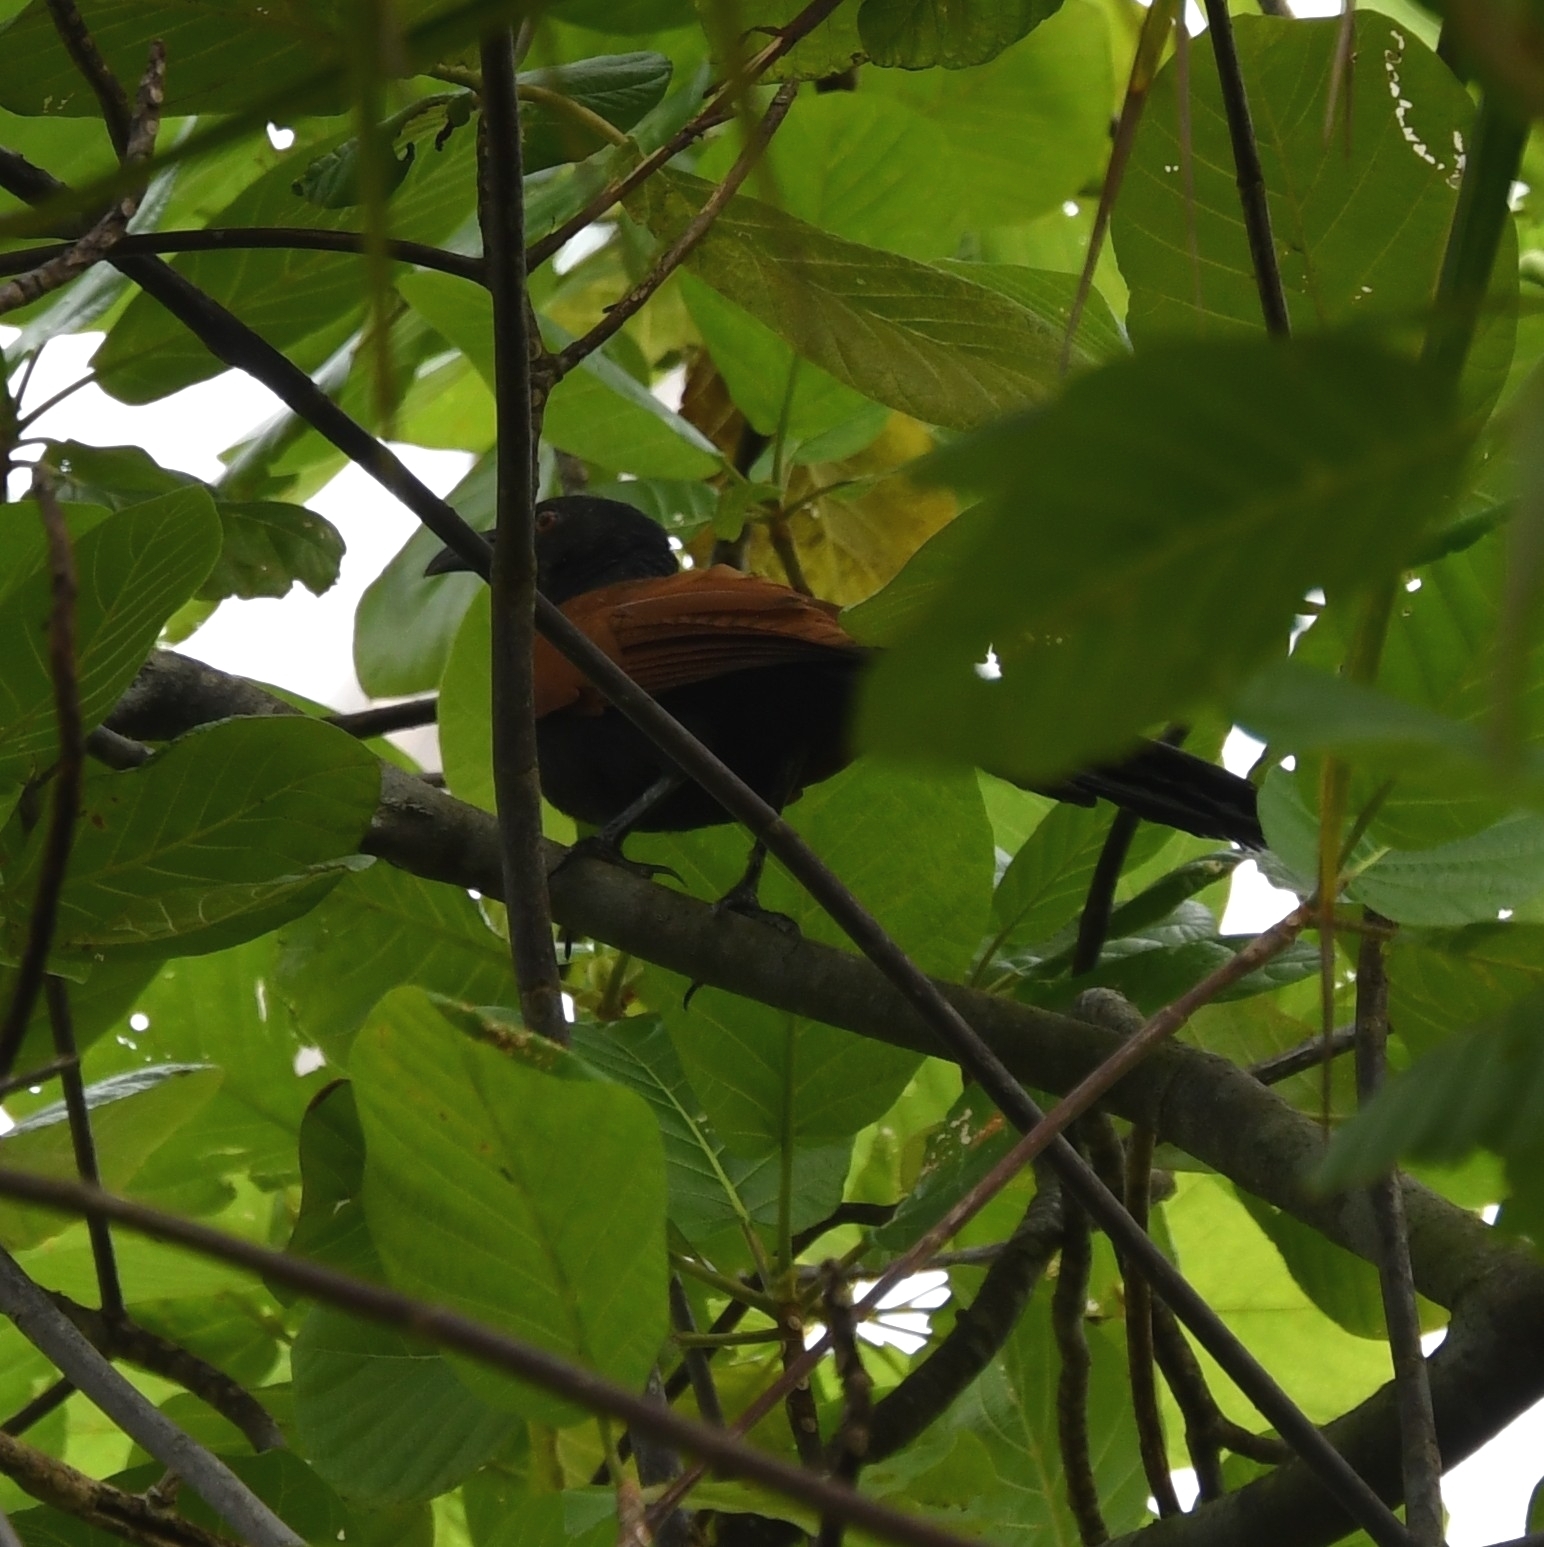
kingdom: Animalia
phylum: Chordata
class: Aves
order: Cuculiformes
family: Cuculidae
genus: Centropus
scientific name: Centropus sinensis
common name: Greater coucal
